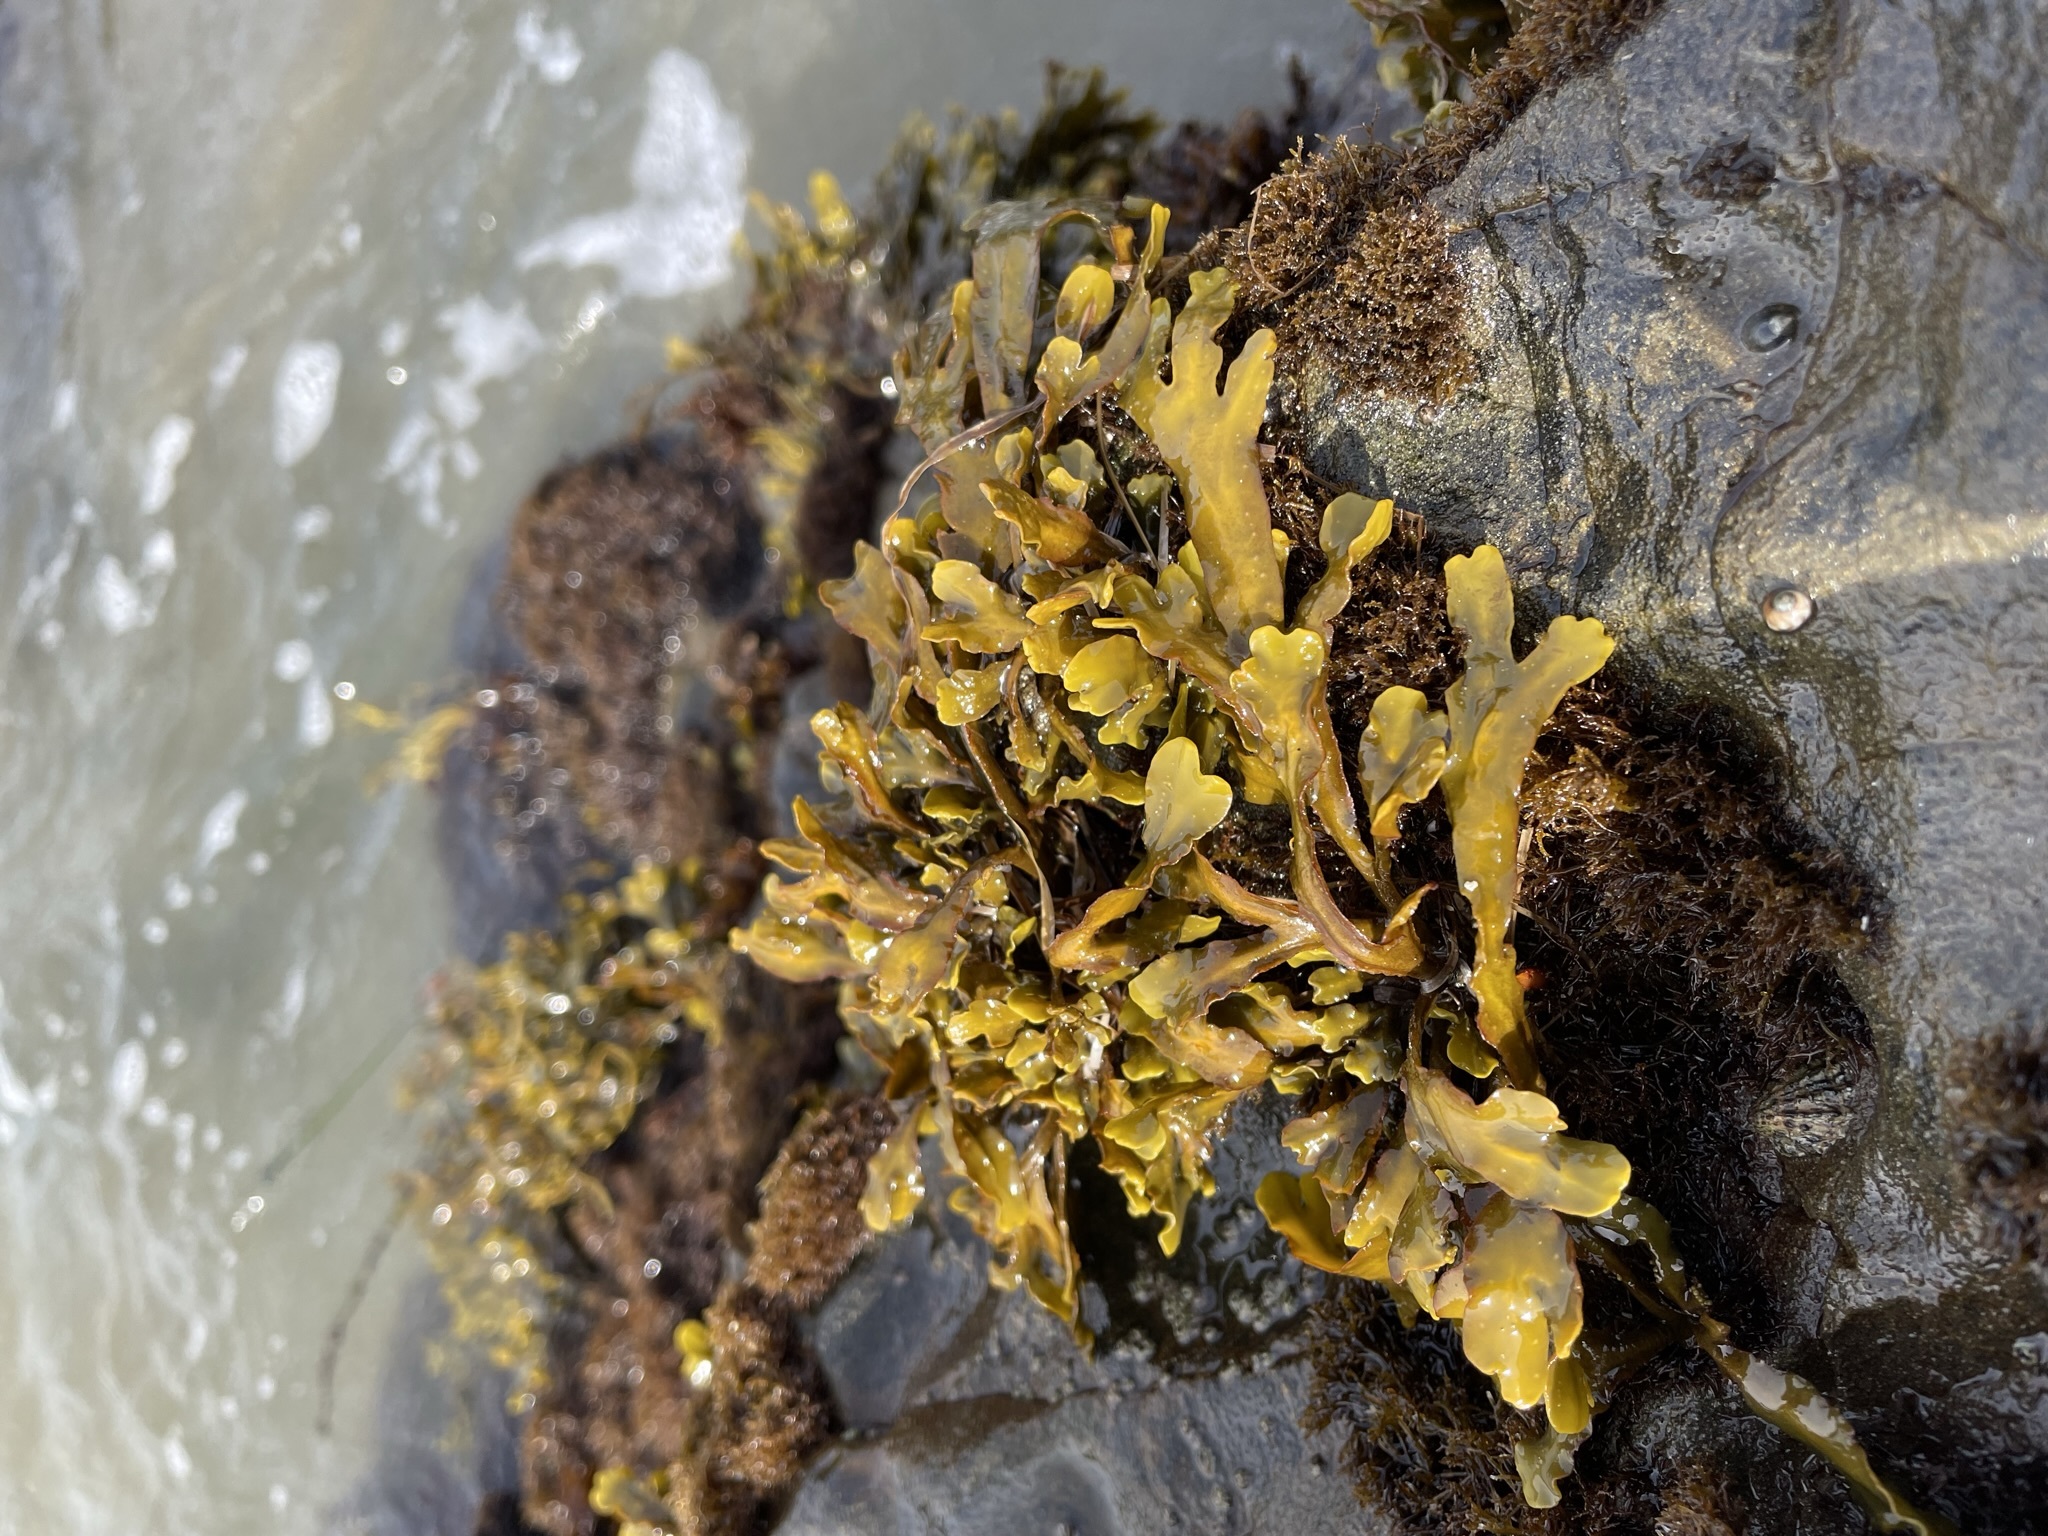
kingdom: Chromista
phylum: Ochrophyta
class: Phaeophyceae
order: Fucales
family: Fucaceae
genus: Pelvetiopsis
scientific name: Pelvetiopsis
